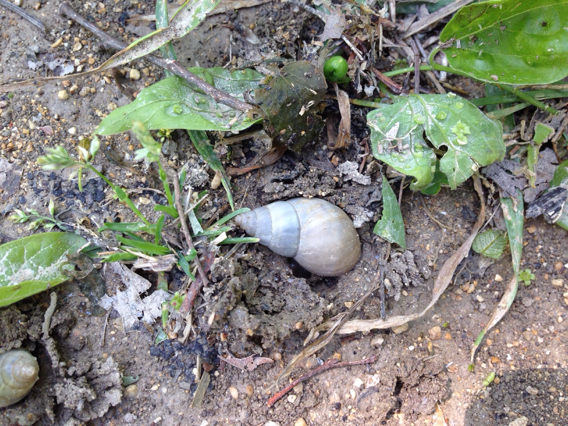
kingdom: Animalia
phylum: Mollusca
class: Gastropoda
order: Stylommatophora
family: Bulimulidae
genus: Rabdotus
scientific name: Rabdotus mooreanus
